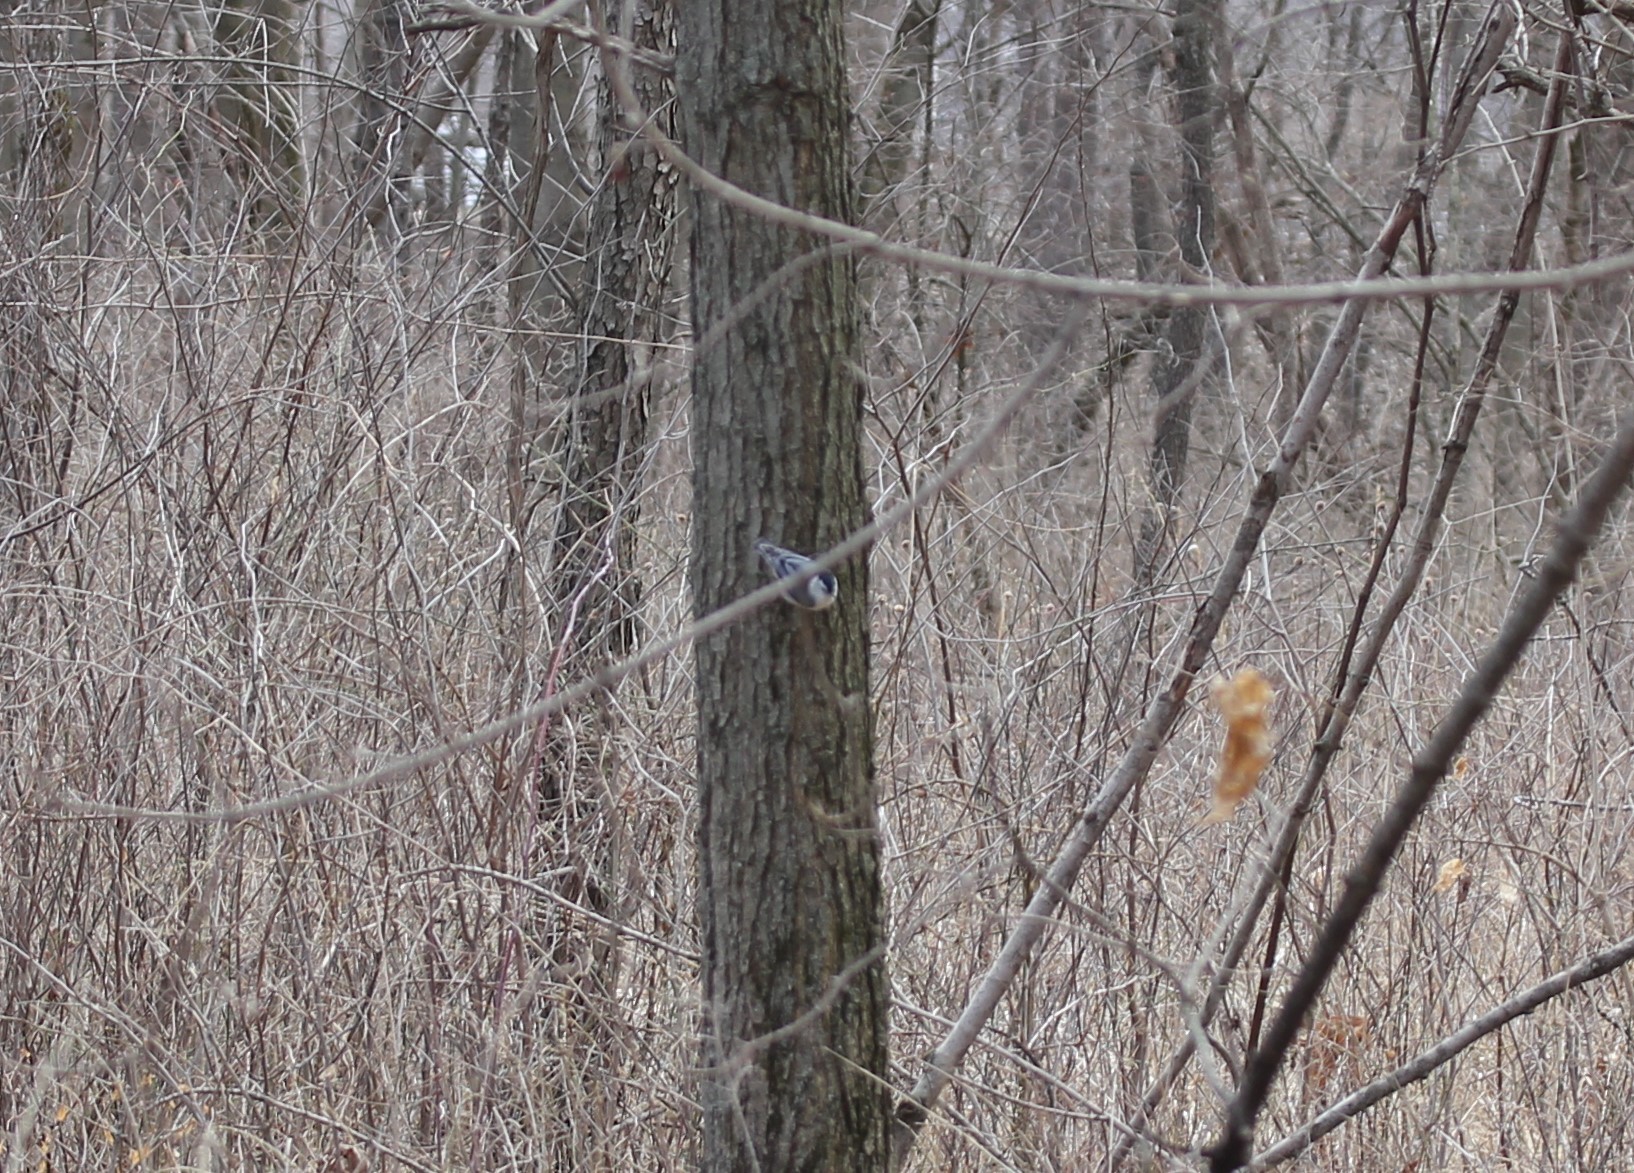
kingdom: Animalia
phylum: Chordata
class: Aves
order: Passeriformes
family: Sittidae
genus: Sitta
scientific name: Sitta carolinensis
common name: White-breasted nuthatch
